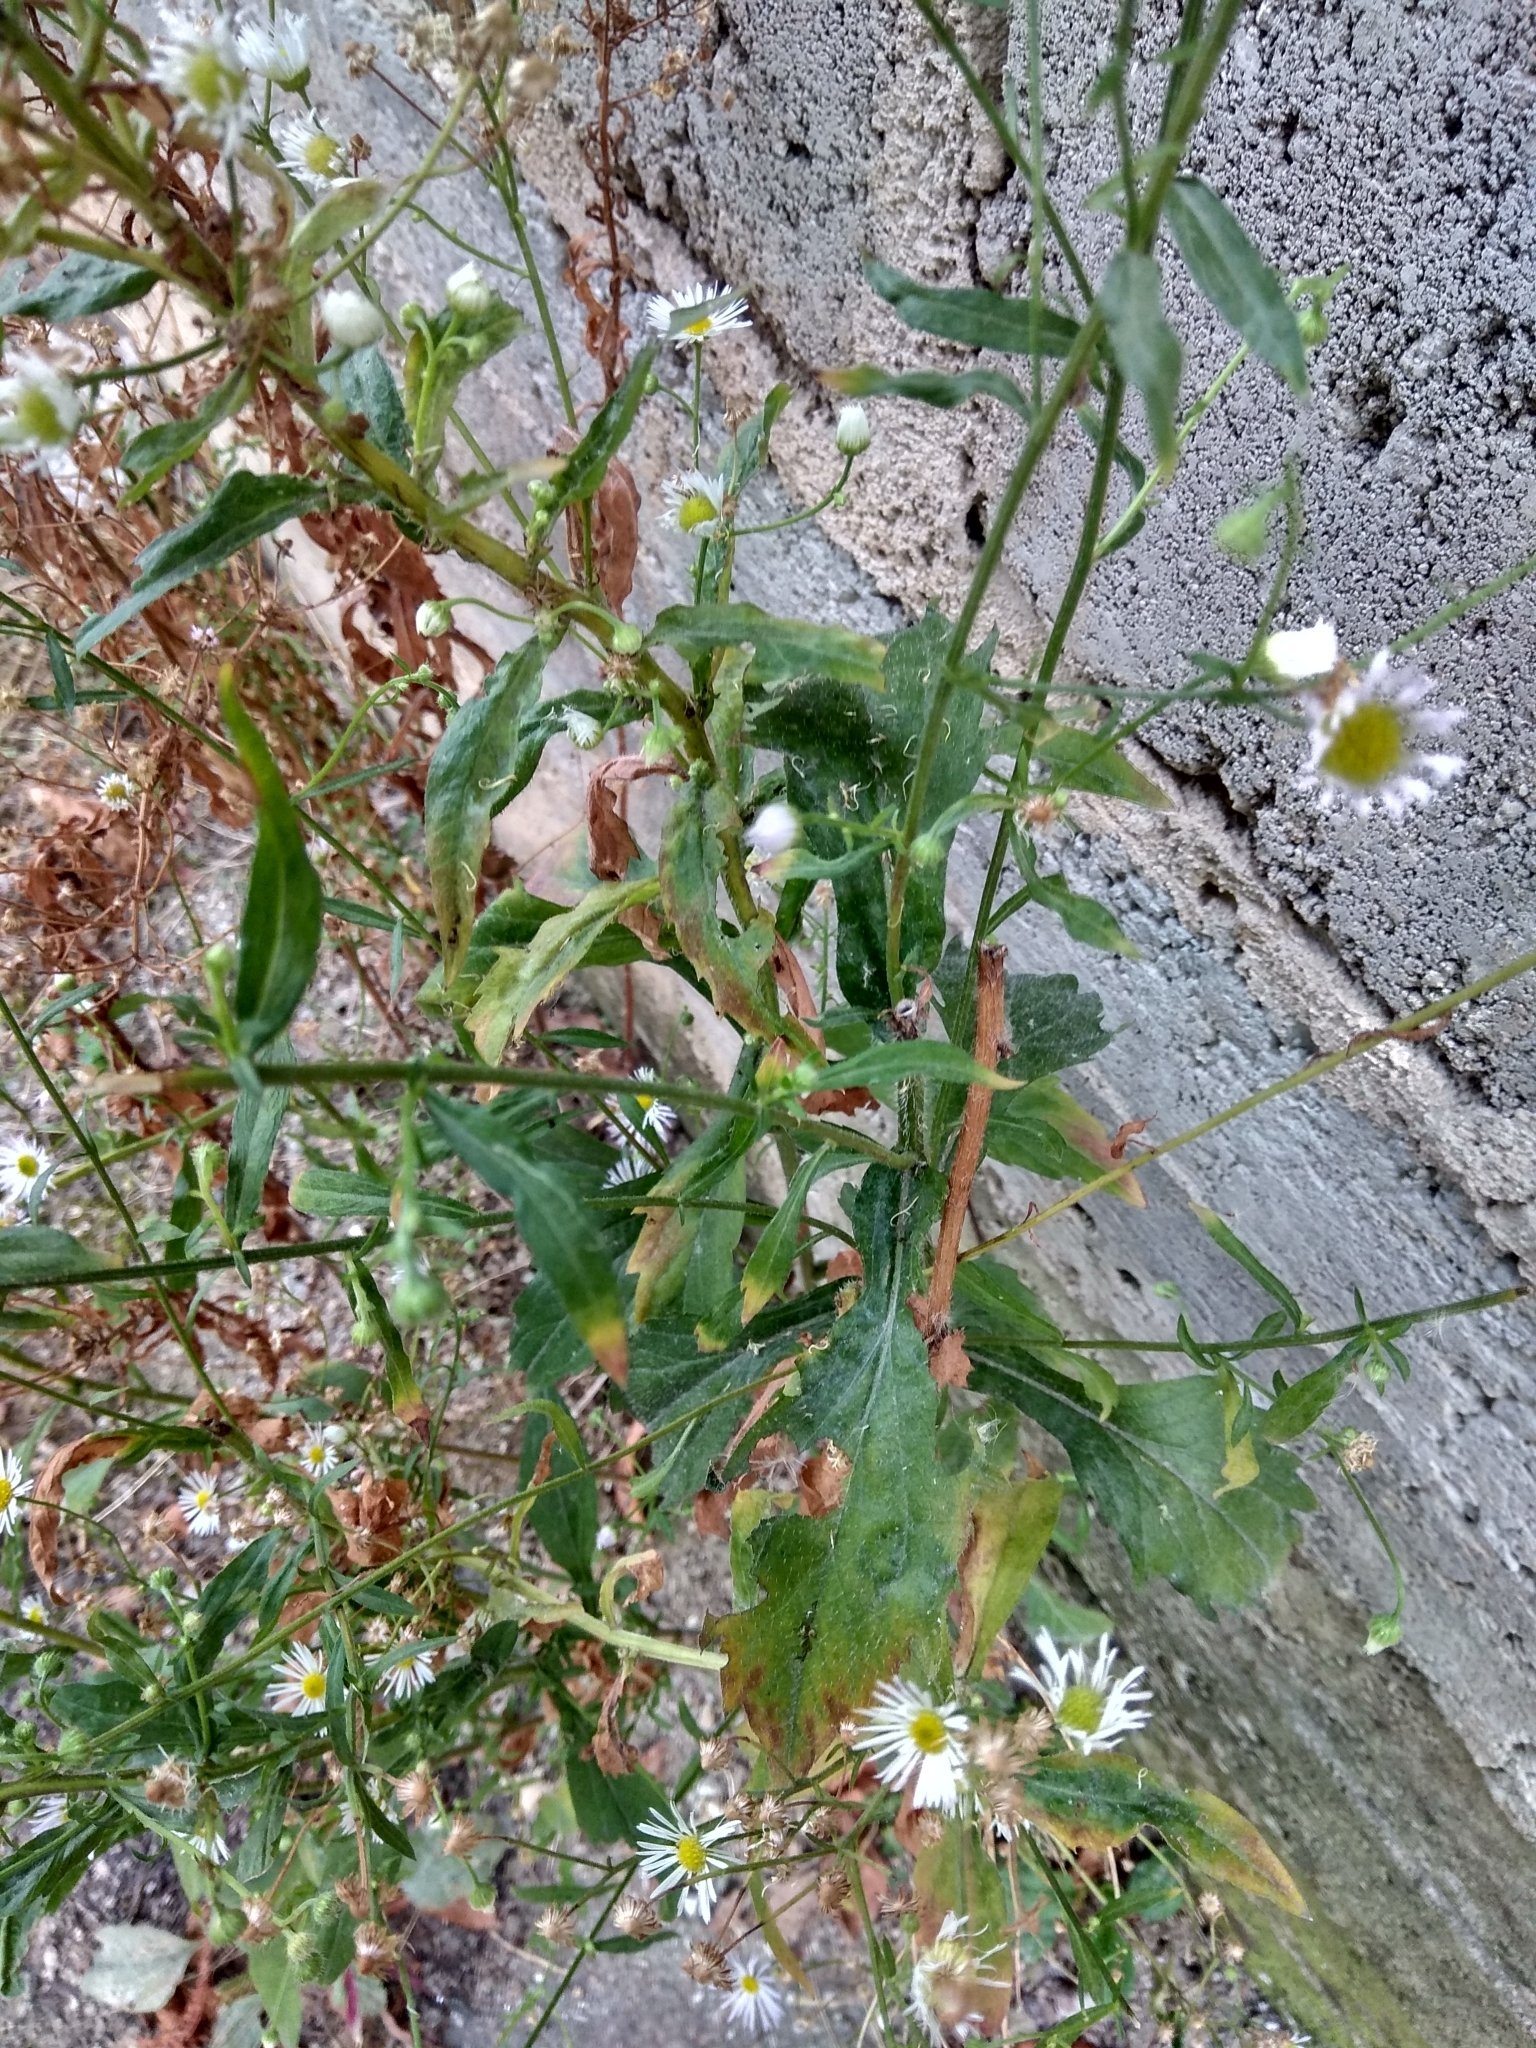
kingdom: Plantae
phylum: Tracheophyta
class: Magnoliopsida
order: Asterales
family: Asteraceae
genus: Erigeron
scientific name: Erigeron annuus
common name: Tall fleabane
